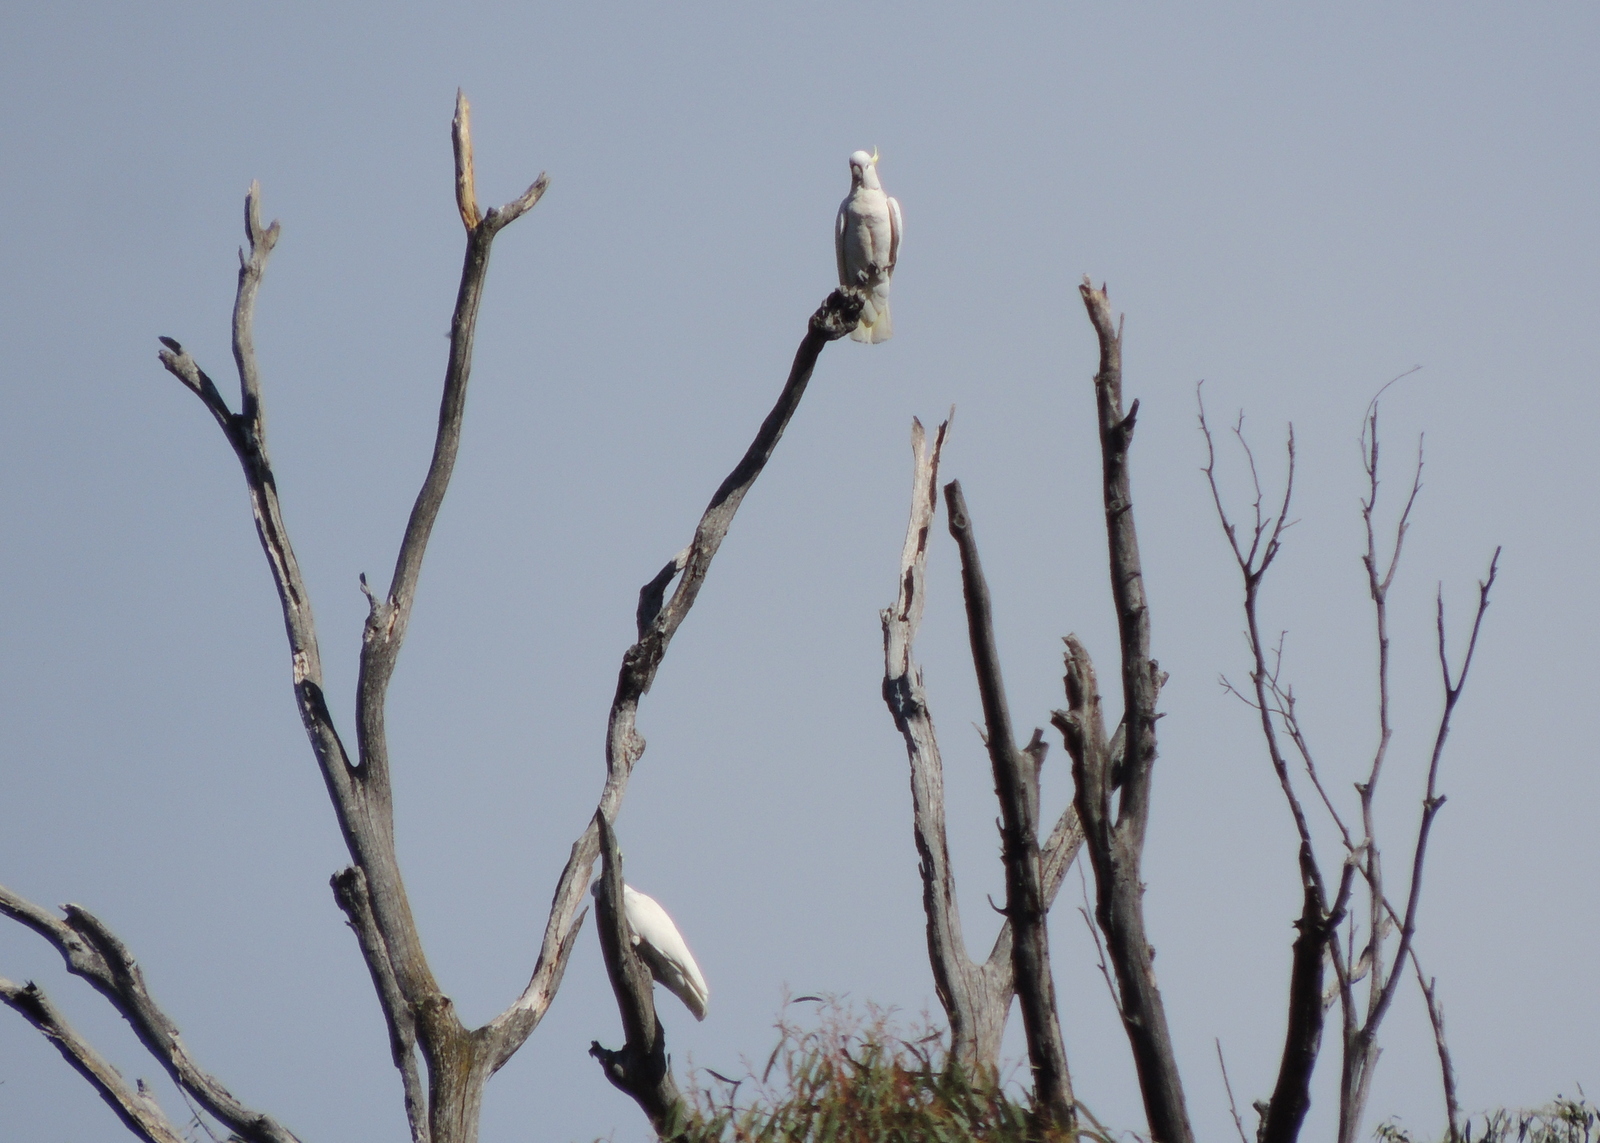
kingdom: Animalia
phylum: Chordata
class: Aves
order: Psittaciformes
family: Psittacidae
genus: Cacatua
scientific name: Cacatua galerita
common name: Sulphur-crested cockatoo
